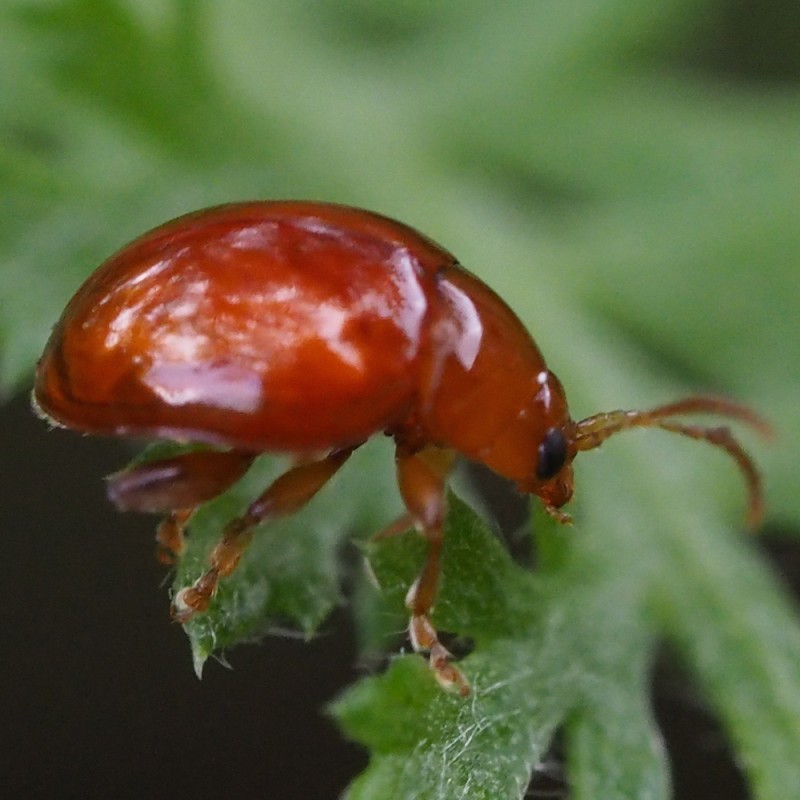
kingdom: Animalia
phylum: Arthropoda
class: Insecta
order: Coleoptera
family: Chrysomelidae
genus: Sphaeroderma
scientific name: Sphaeroderma rubi
